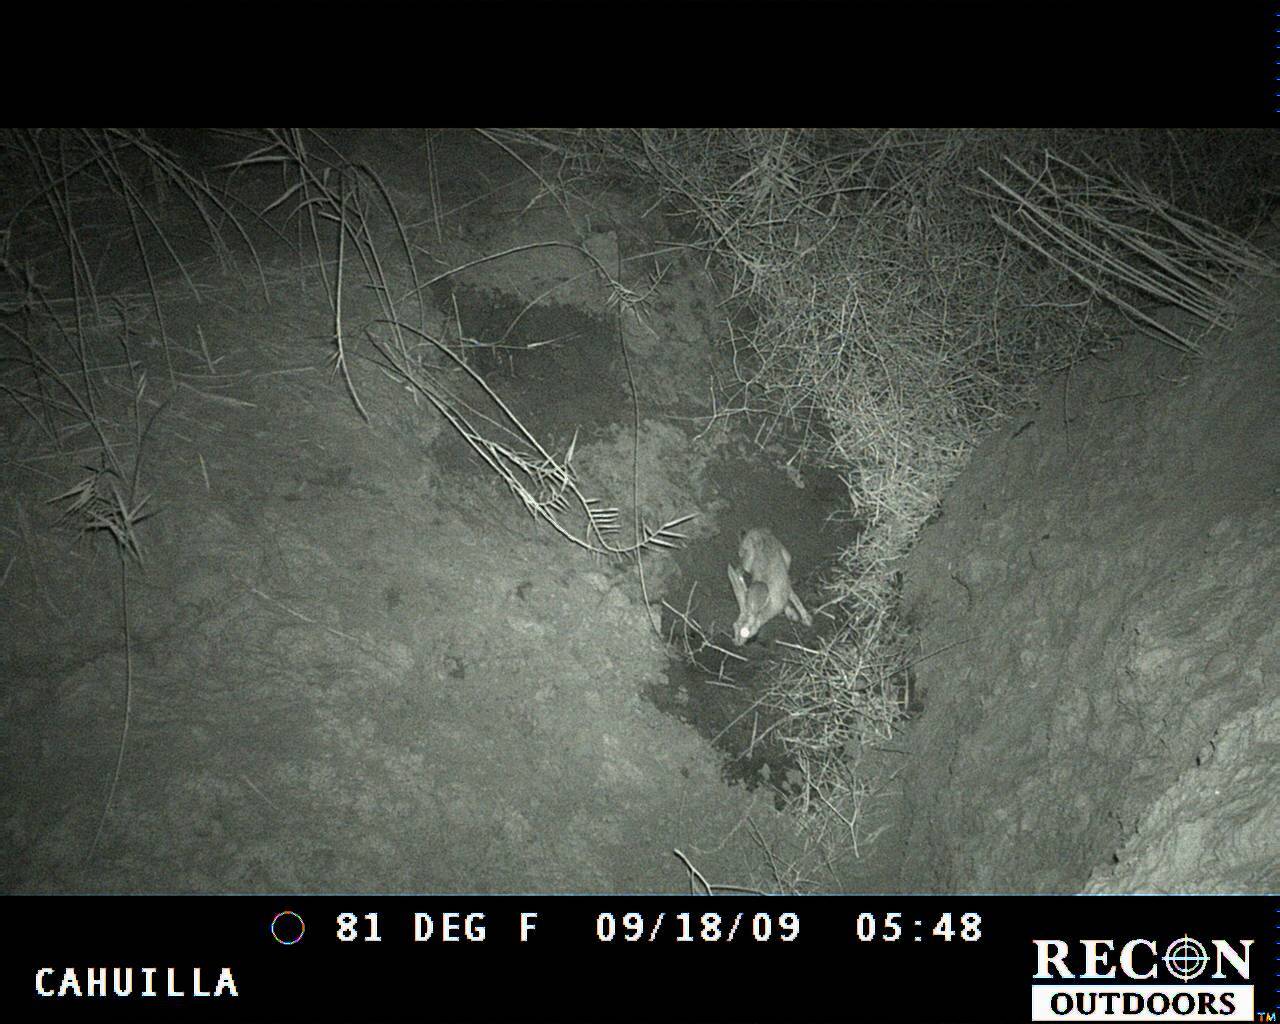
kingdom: Animalia
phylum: Chordata
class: Mammalia
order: Lagomorpha
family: Leporidae
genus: Lepus
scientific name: Lepus californicus
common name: Black-tailed jackrabbit
